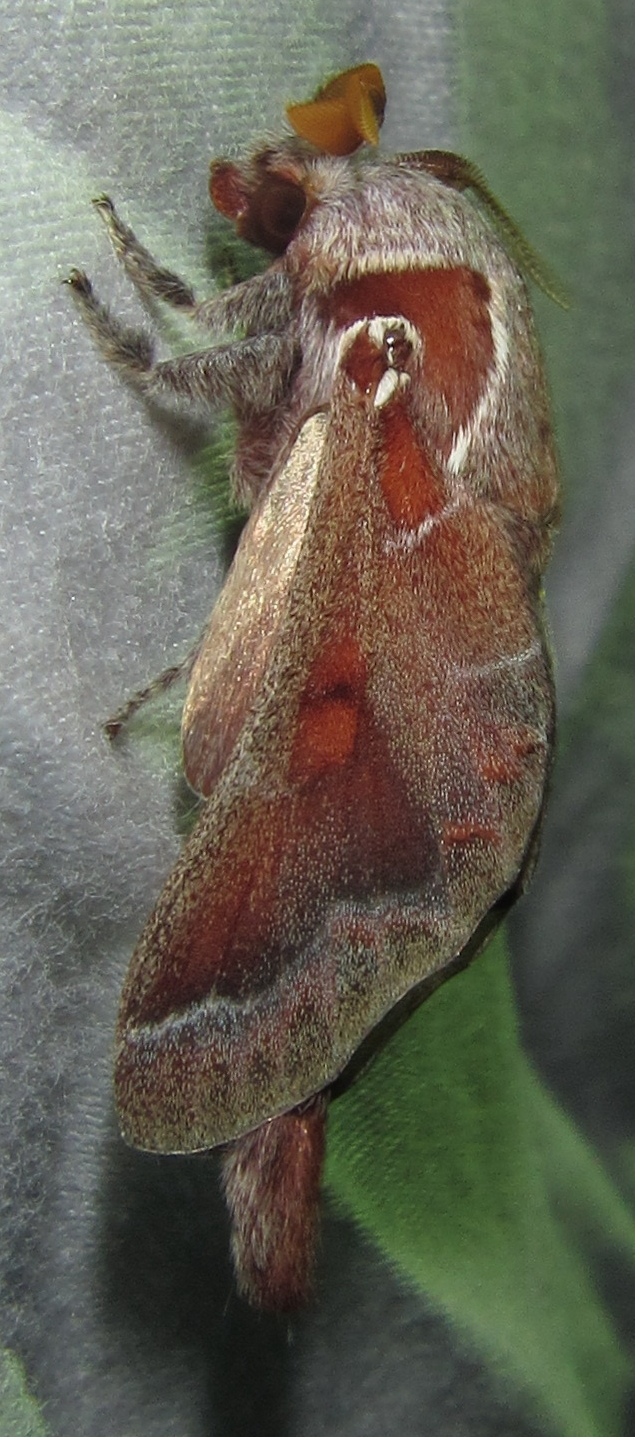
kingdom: Animalia
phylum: Arthropoda
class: Insecta
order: Lepidoptera
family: Lasiocampidae
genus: Streblote
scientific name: Streblote jansei
